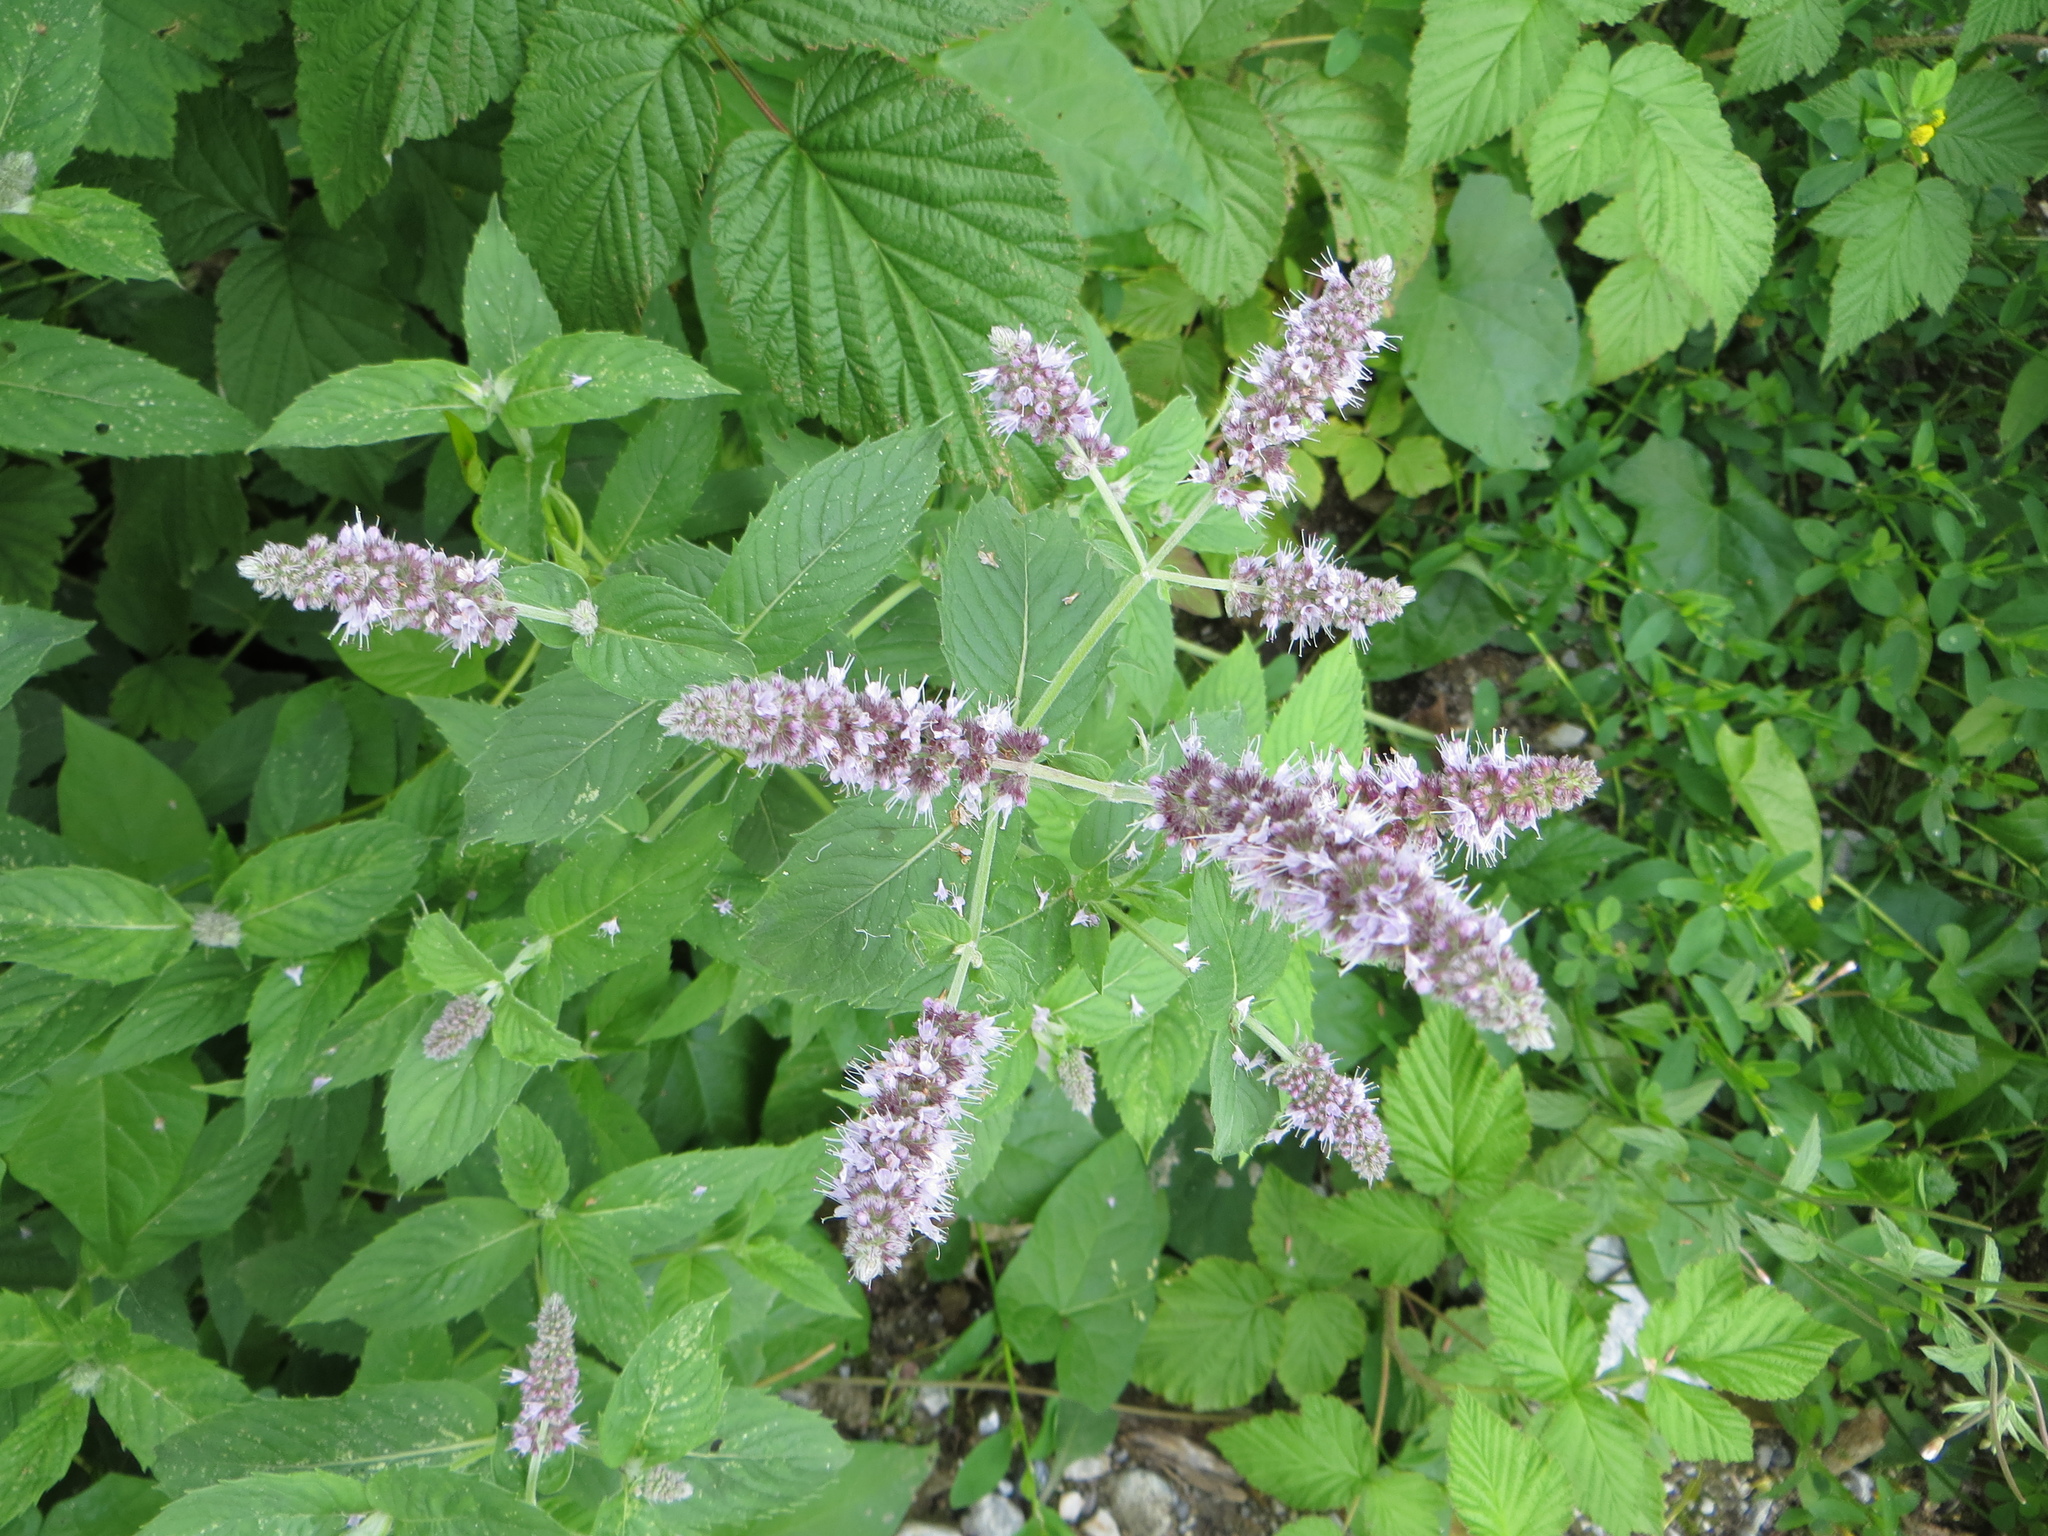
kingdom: Plantae
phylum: Tracheophyta
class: Magnoliopsida
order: Lamiales
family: Lamiaceae
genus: Mentha
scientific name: Mentha longifolia
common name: Horse mint
